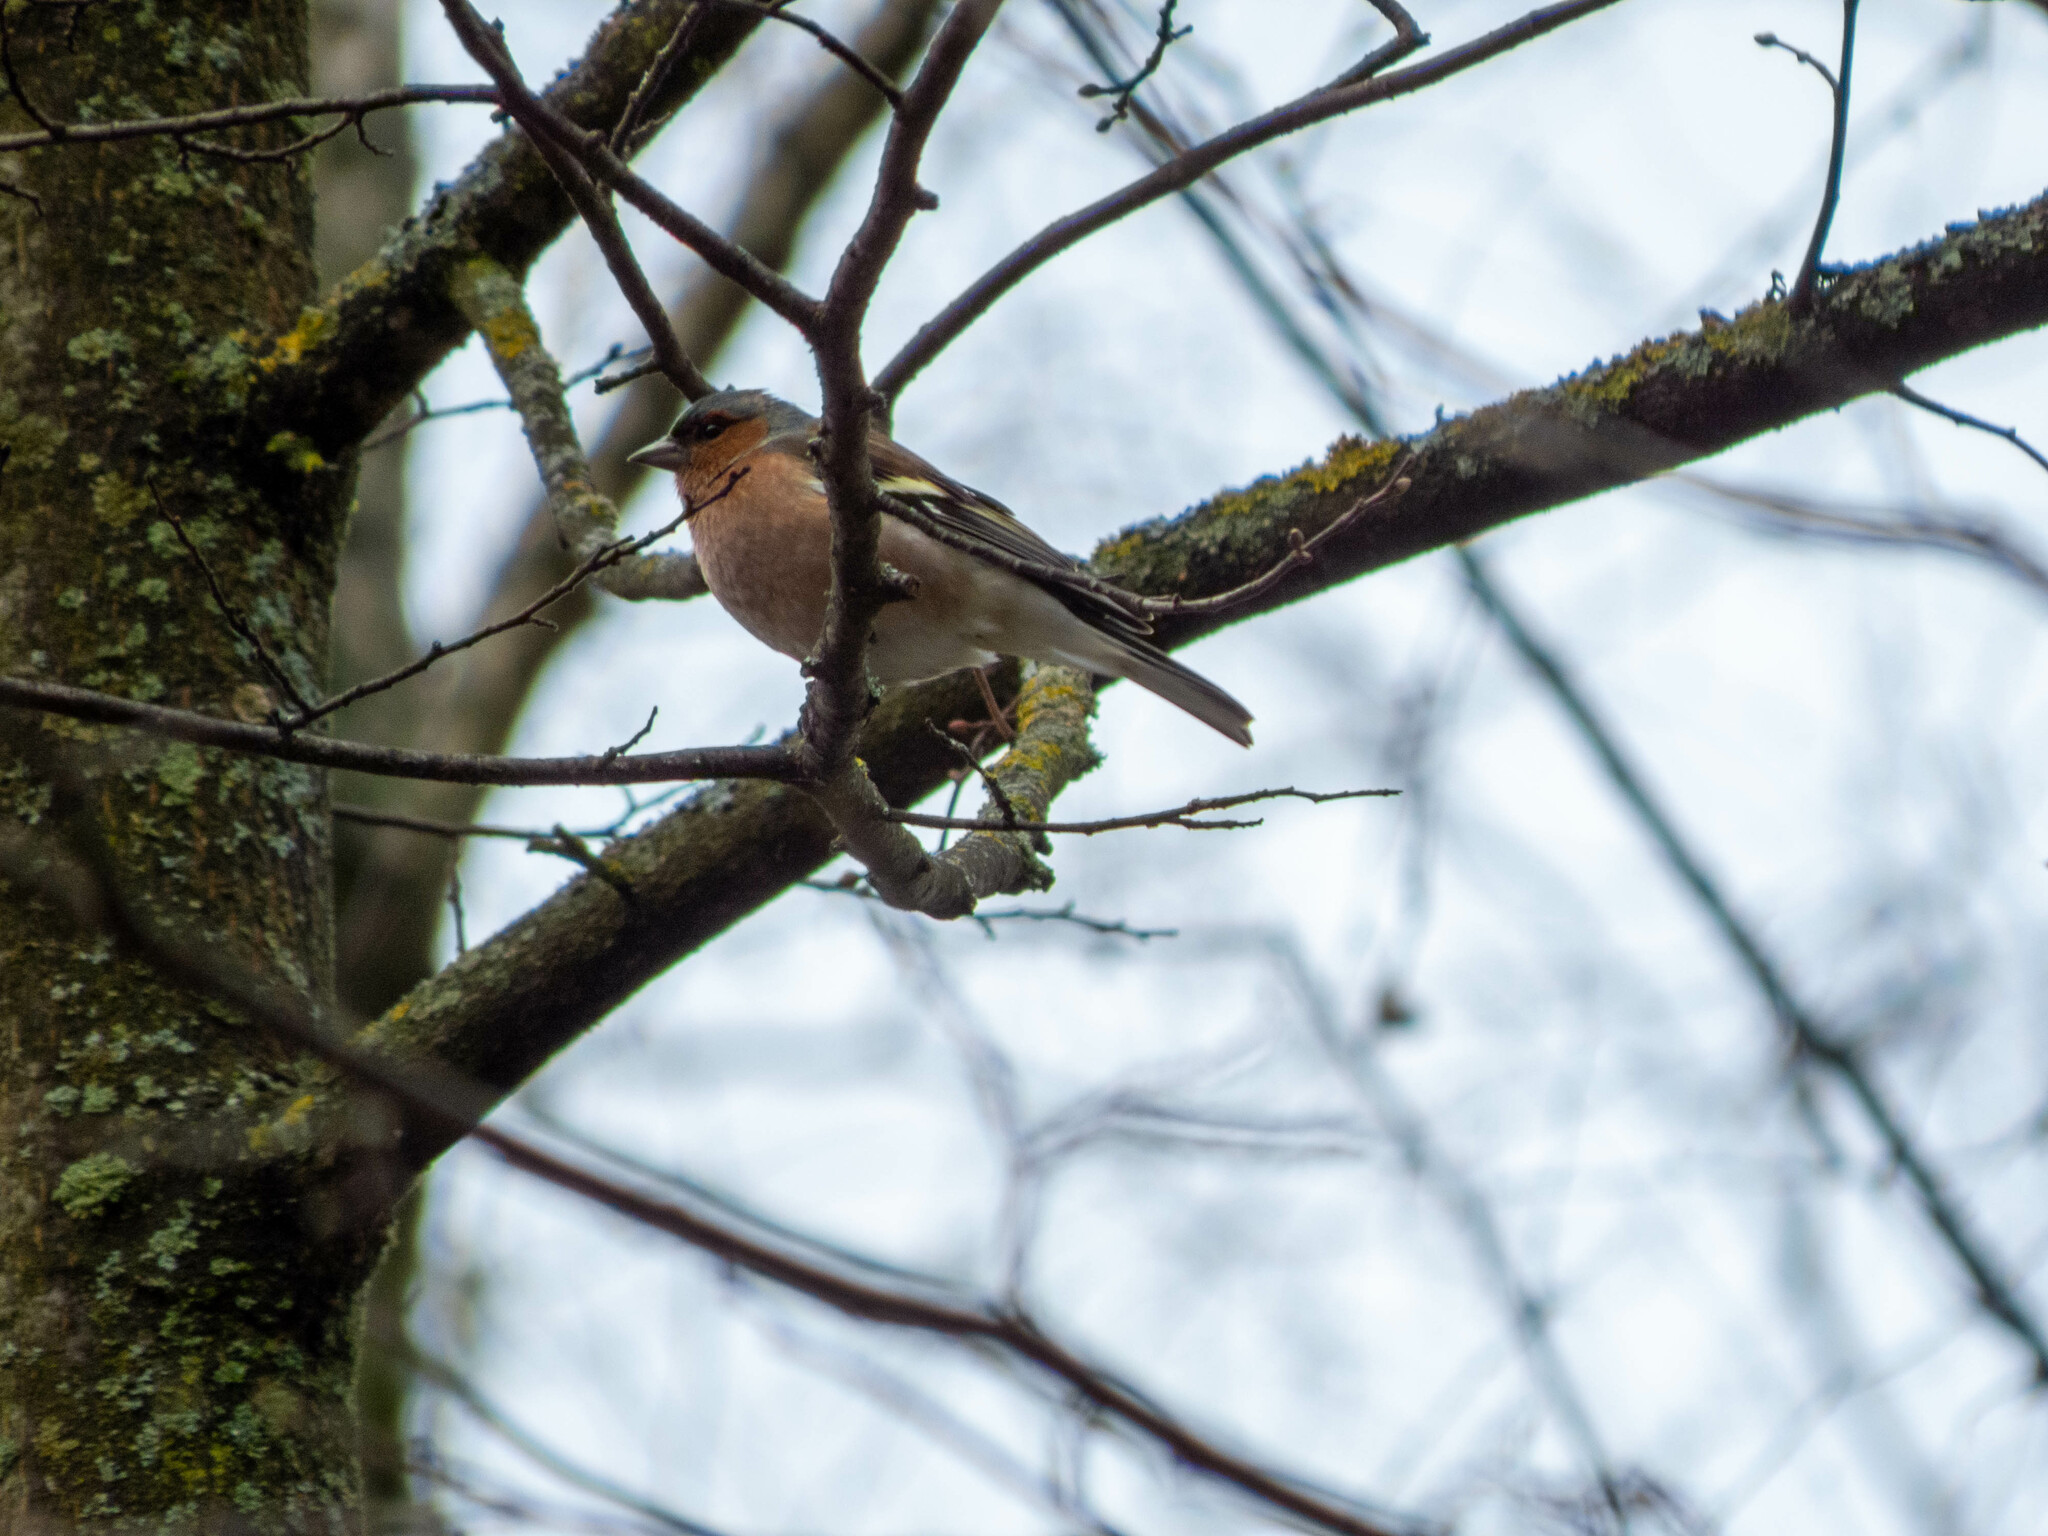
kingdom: Animalia
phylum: Chordata
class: Aves
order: Passeriformes
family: Fringillidae
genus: Fringilla
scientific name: Fringilla coelebs
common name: Common chaffinch
